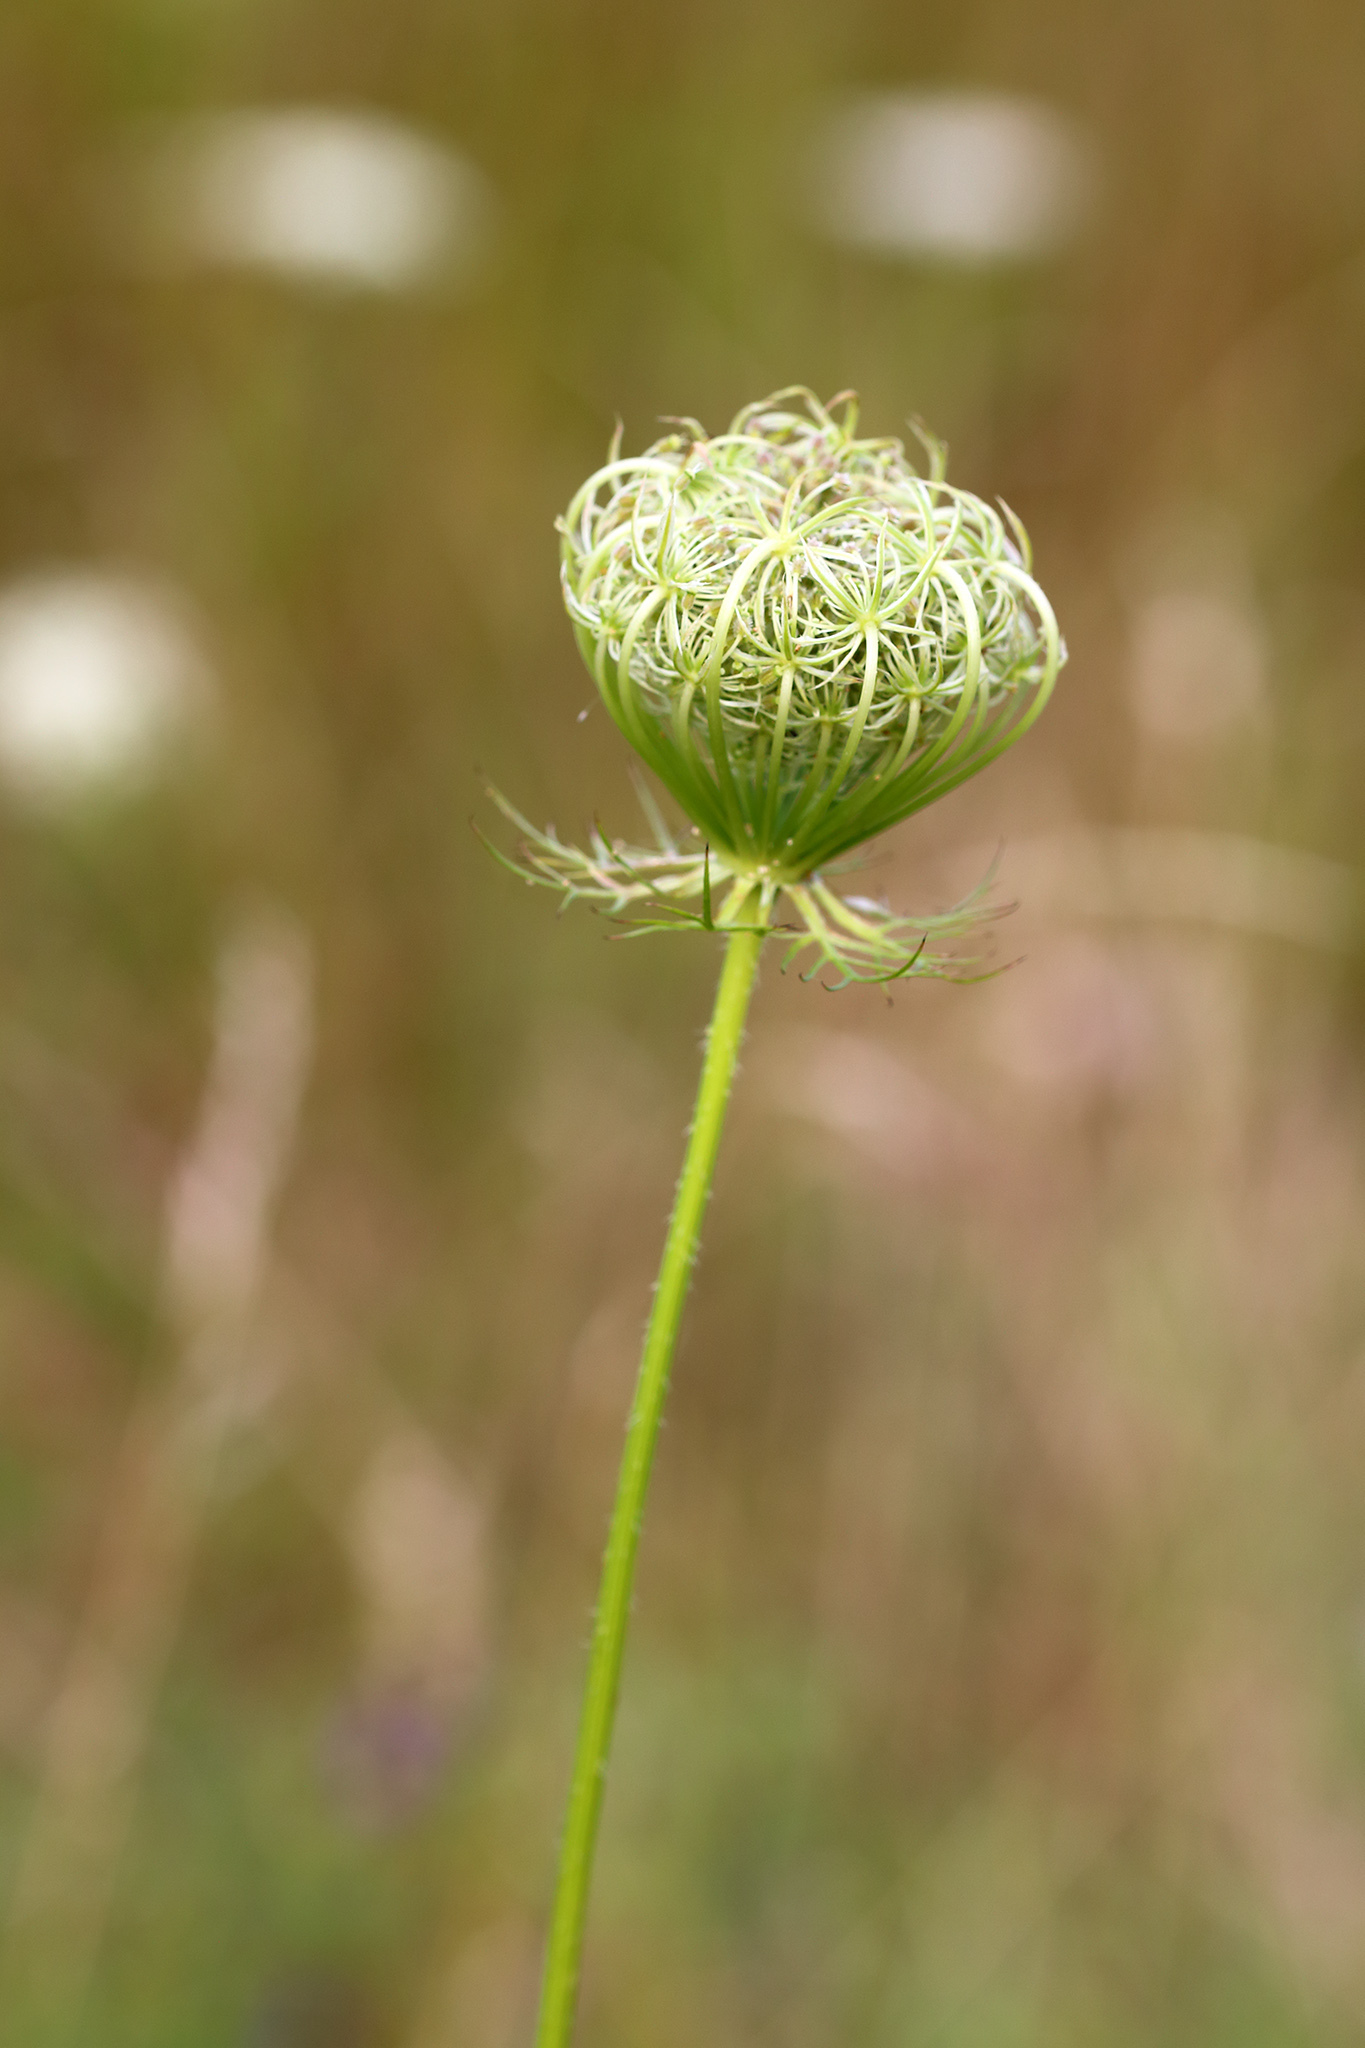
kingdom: Plantae
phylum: Tracheophyta
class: Magnoliopsida
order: Apiales
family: Apiaceae
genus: Daucus
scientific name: Daucus carota
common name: Wild carrot
